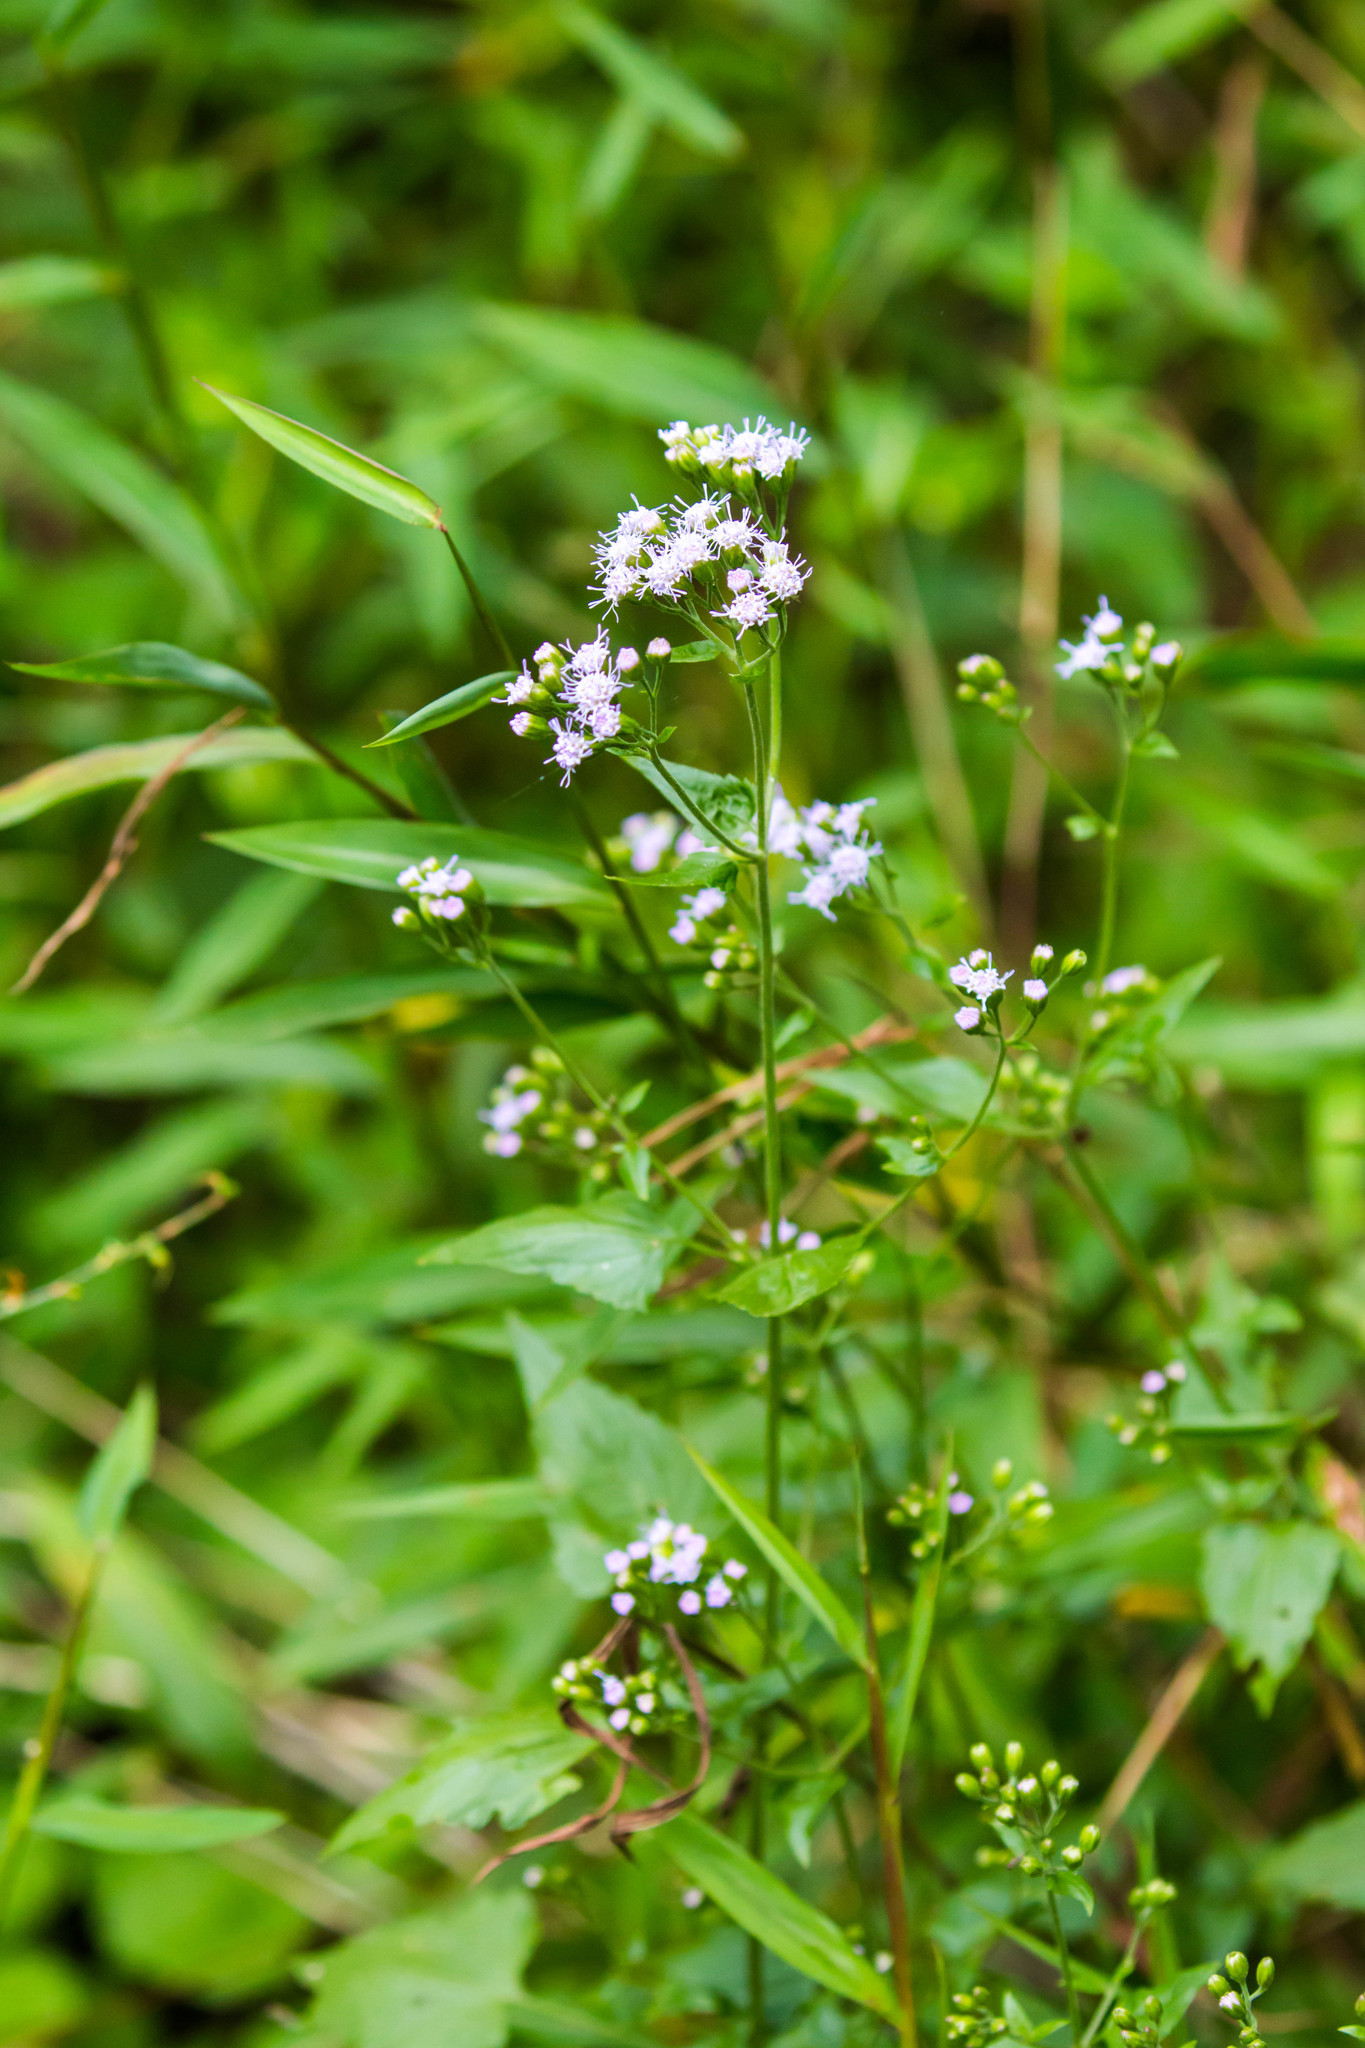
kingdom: Plantae
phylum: Tracheophyta
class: Magnoliopsida
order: Asterales
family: Asteraceae
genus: Fleischmannia
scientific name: Fleischmannia incarnata
